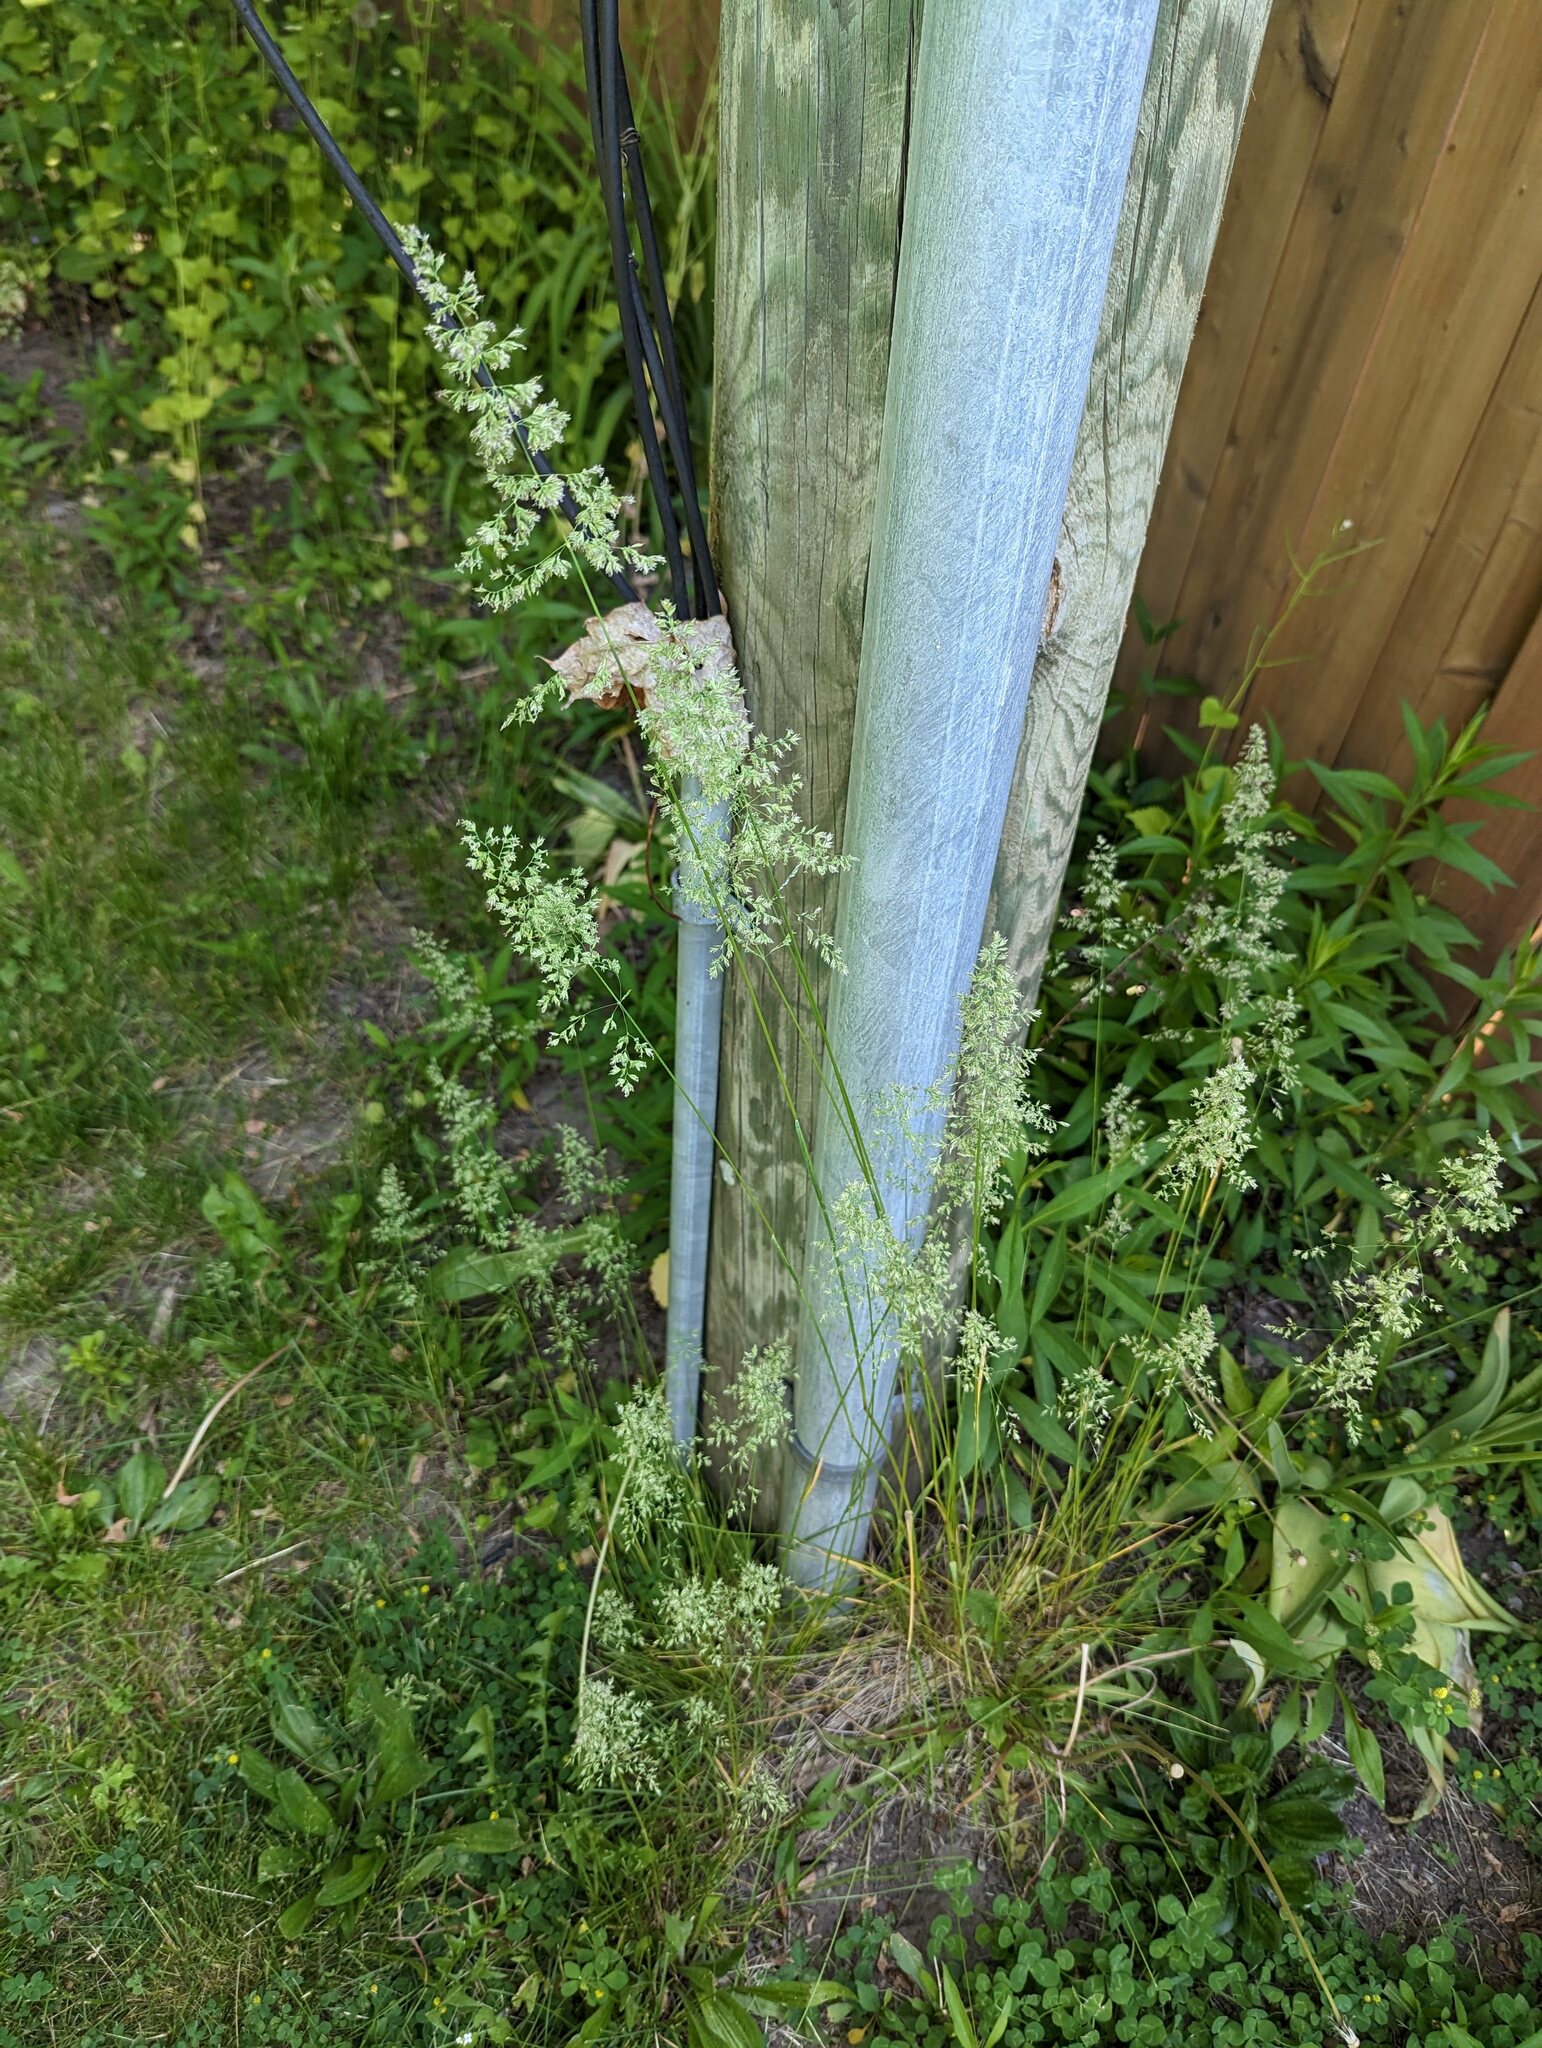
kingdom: Plantae
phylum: Tracheophyta
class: Liliopsida
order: Poales
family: Poaceae
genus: Poa
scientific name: Poa pratensis
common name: Kentucky bluegrass
